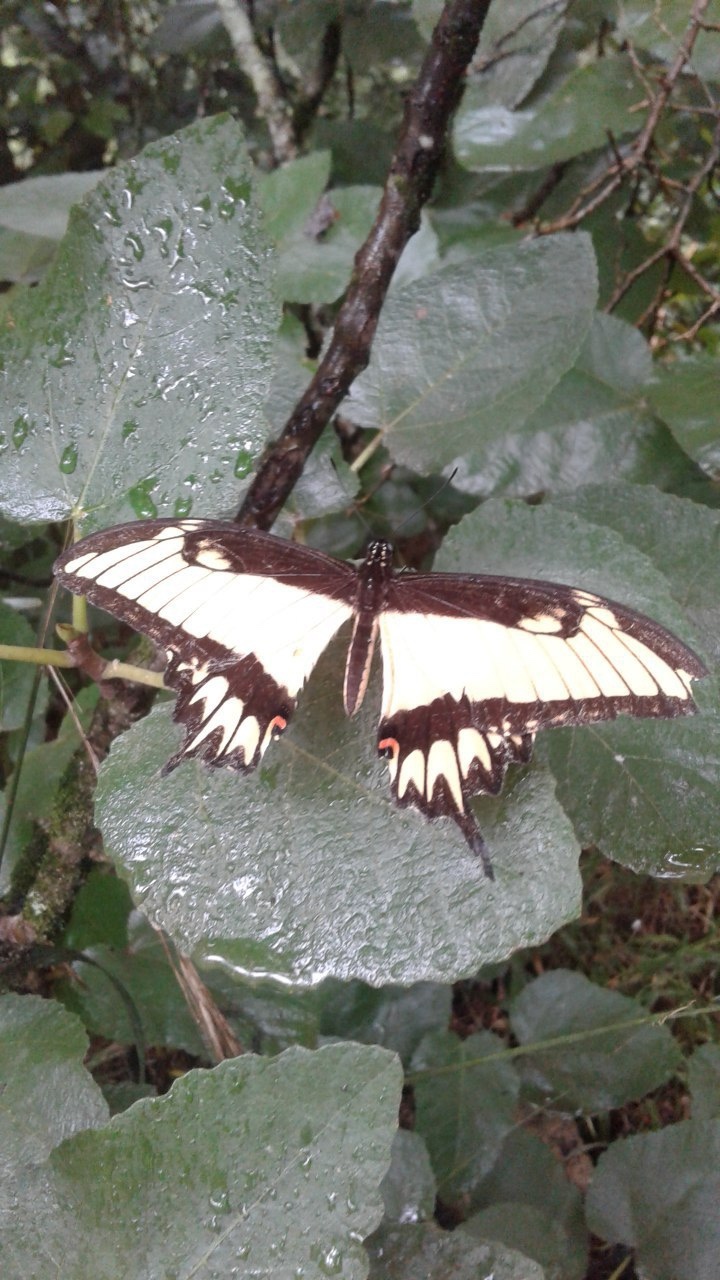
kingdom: Animalia
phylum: Arthropoda
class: Insecta
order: Lepidoptera
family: Papilionidae
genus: Papilio
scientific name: Papilio astyalus
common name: Astyalus swallowtail
